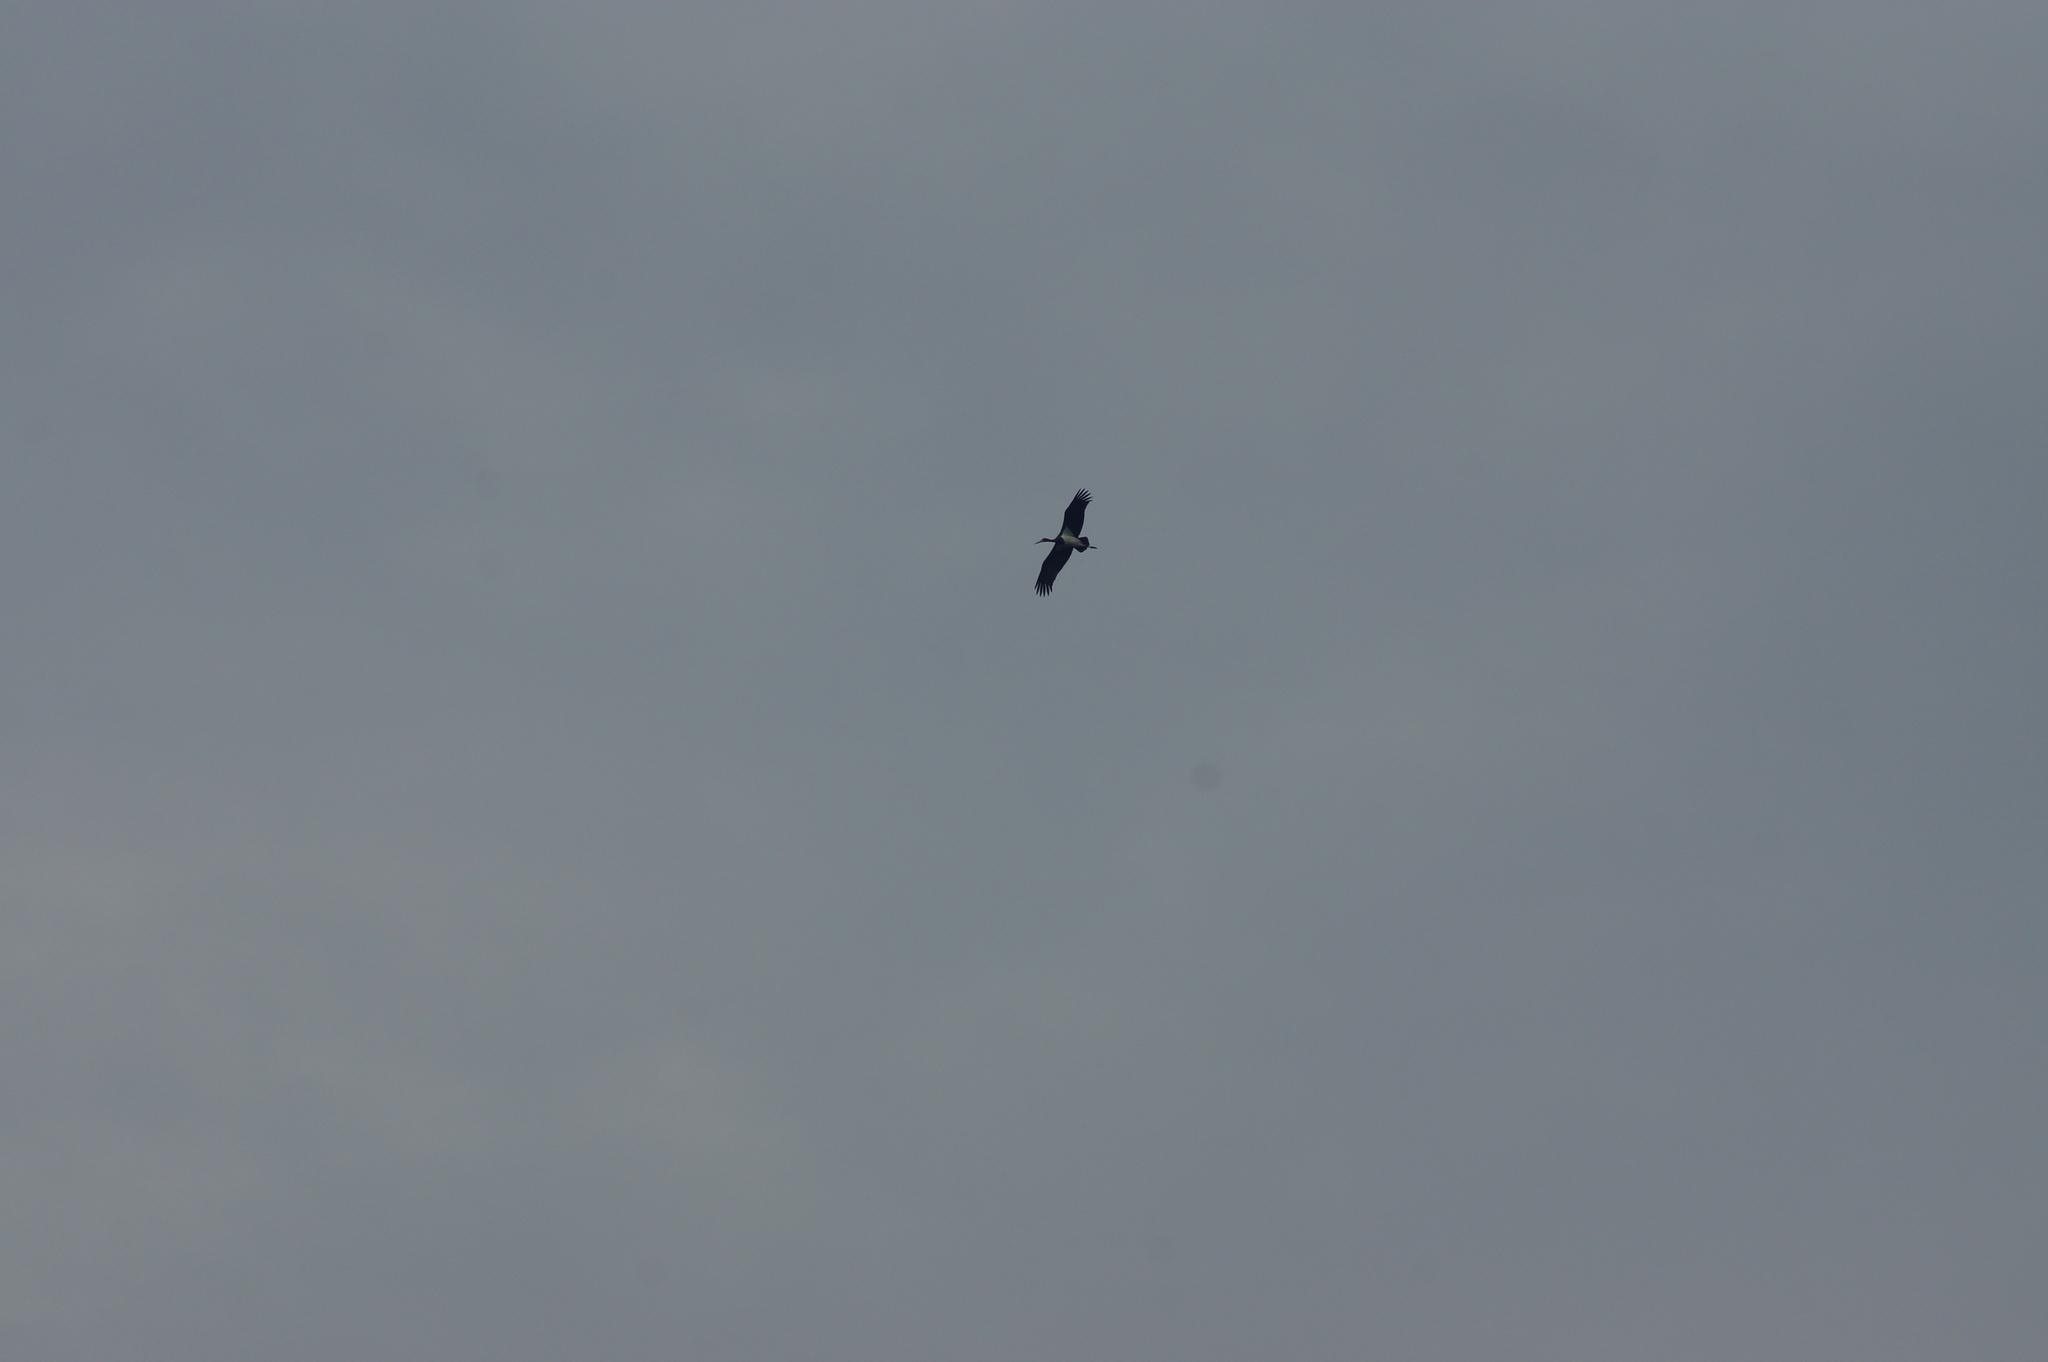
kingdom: Animalia
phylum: Chordata
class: Aves
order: Ciconiiformes
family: Ciconiidae
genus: Ciconia
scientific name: Ciconia nigra
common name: Black stork
